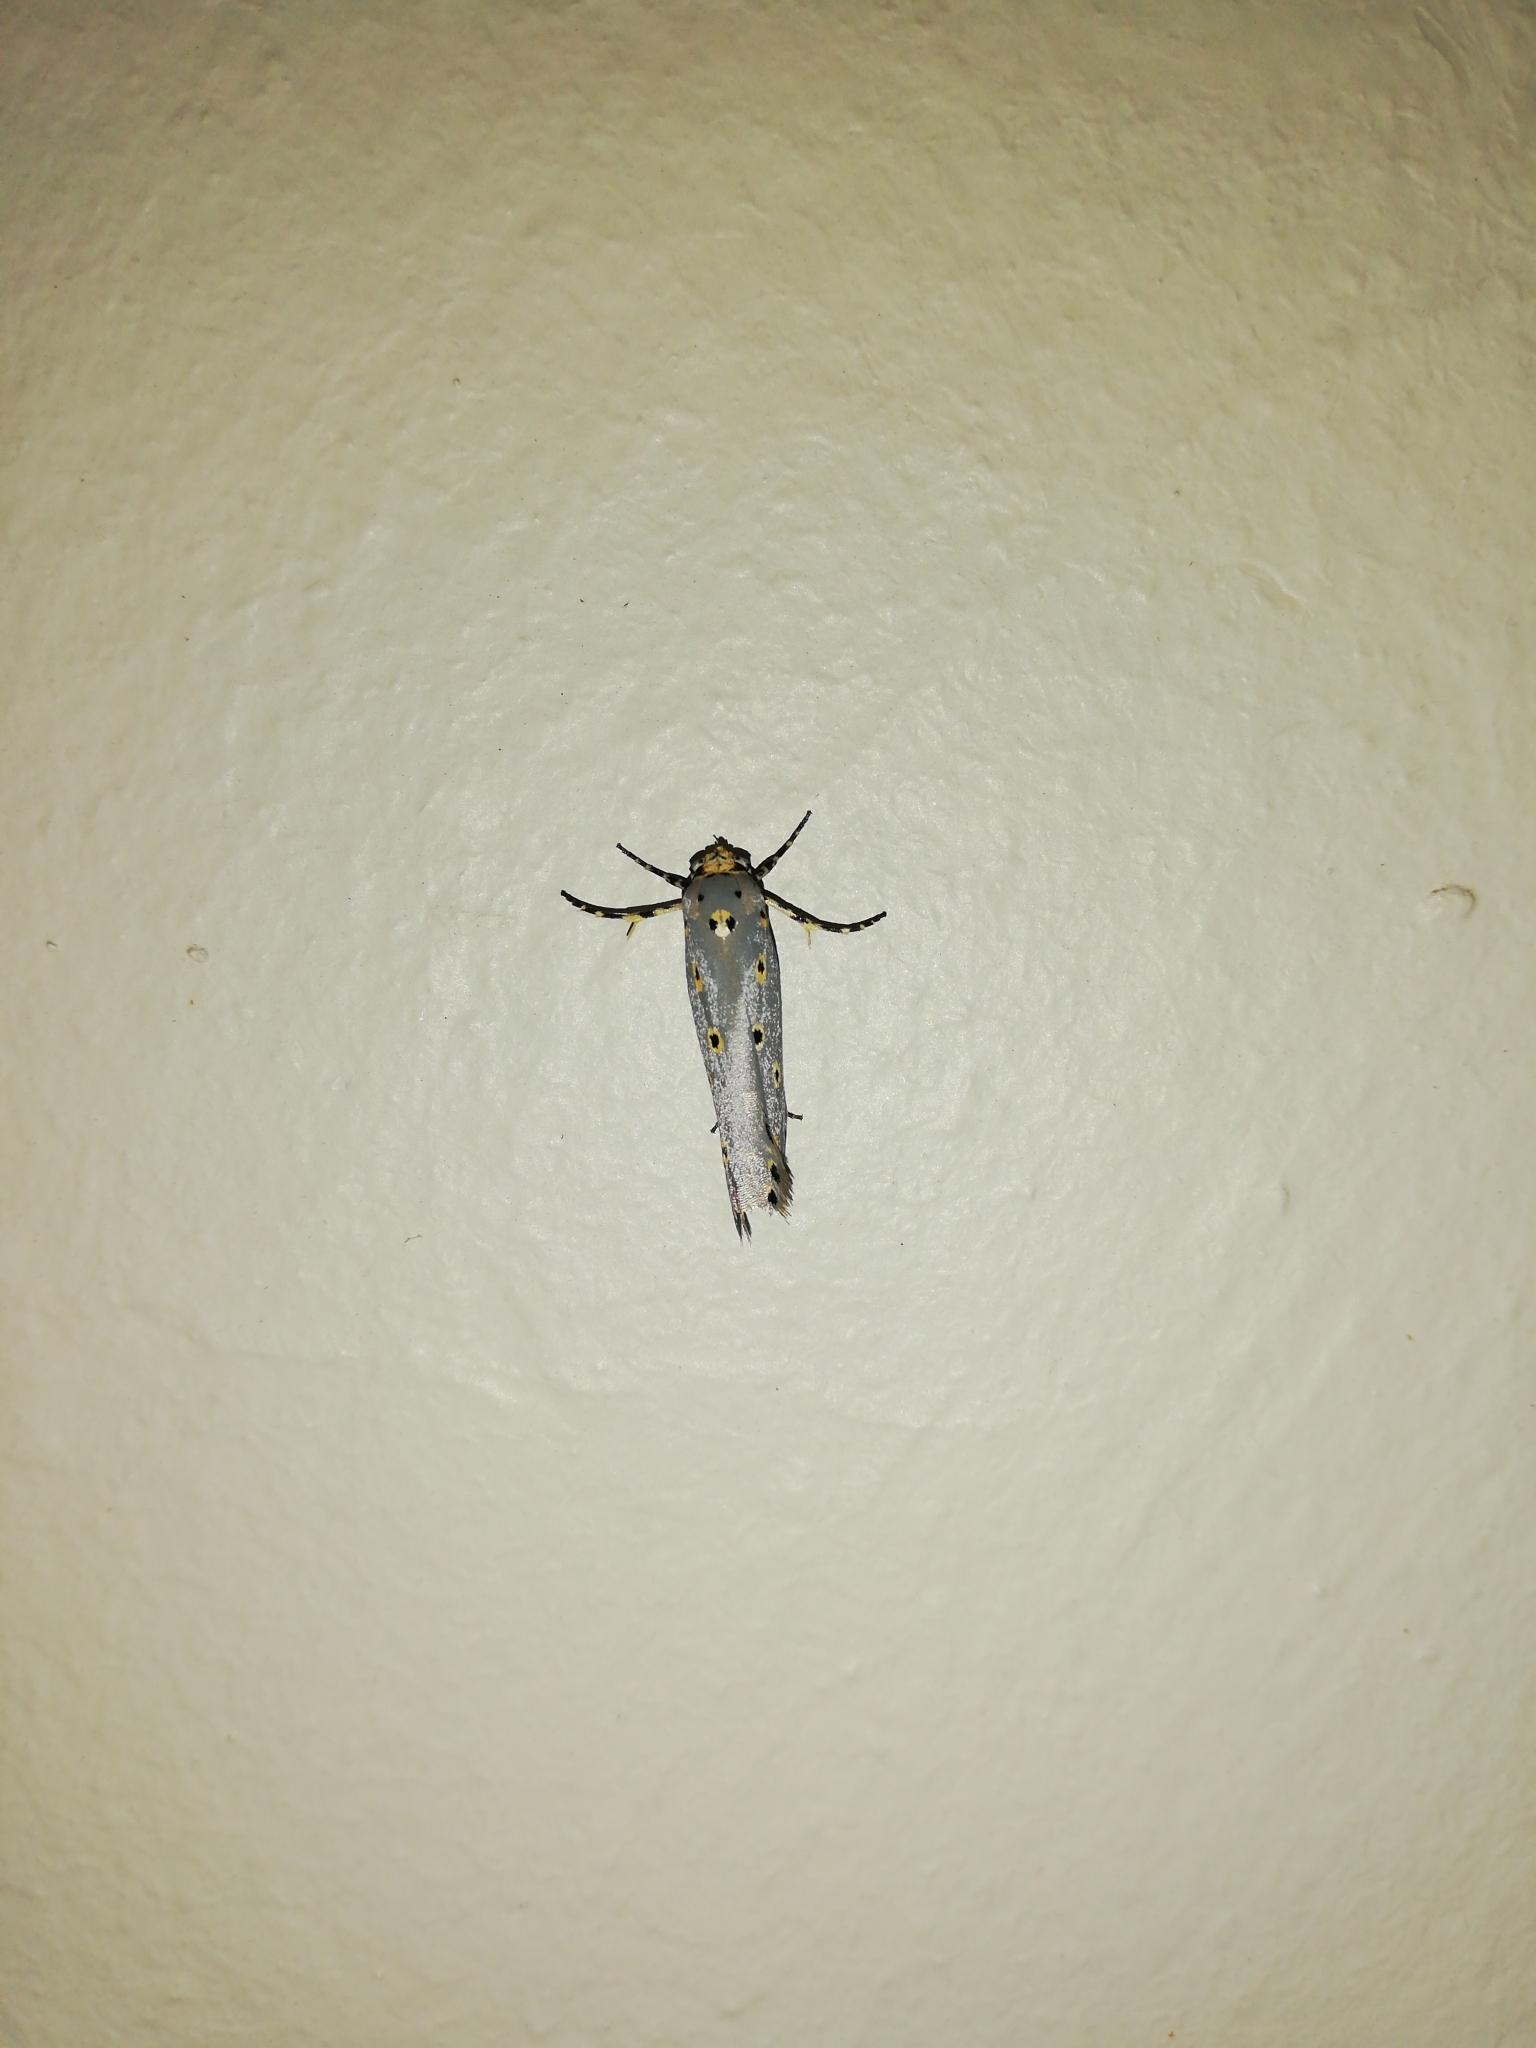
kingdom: Animalia
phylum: Arthropoda
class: Insecta
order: Lepidoptera
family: Ethmiidae
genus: Ethmia
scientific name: Ethmia circumdatella
